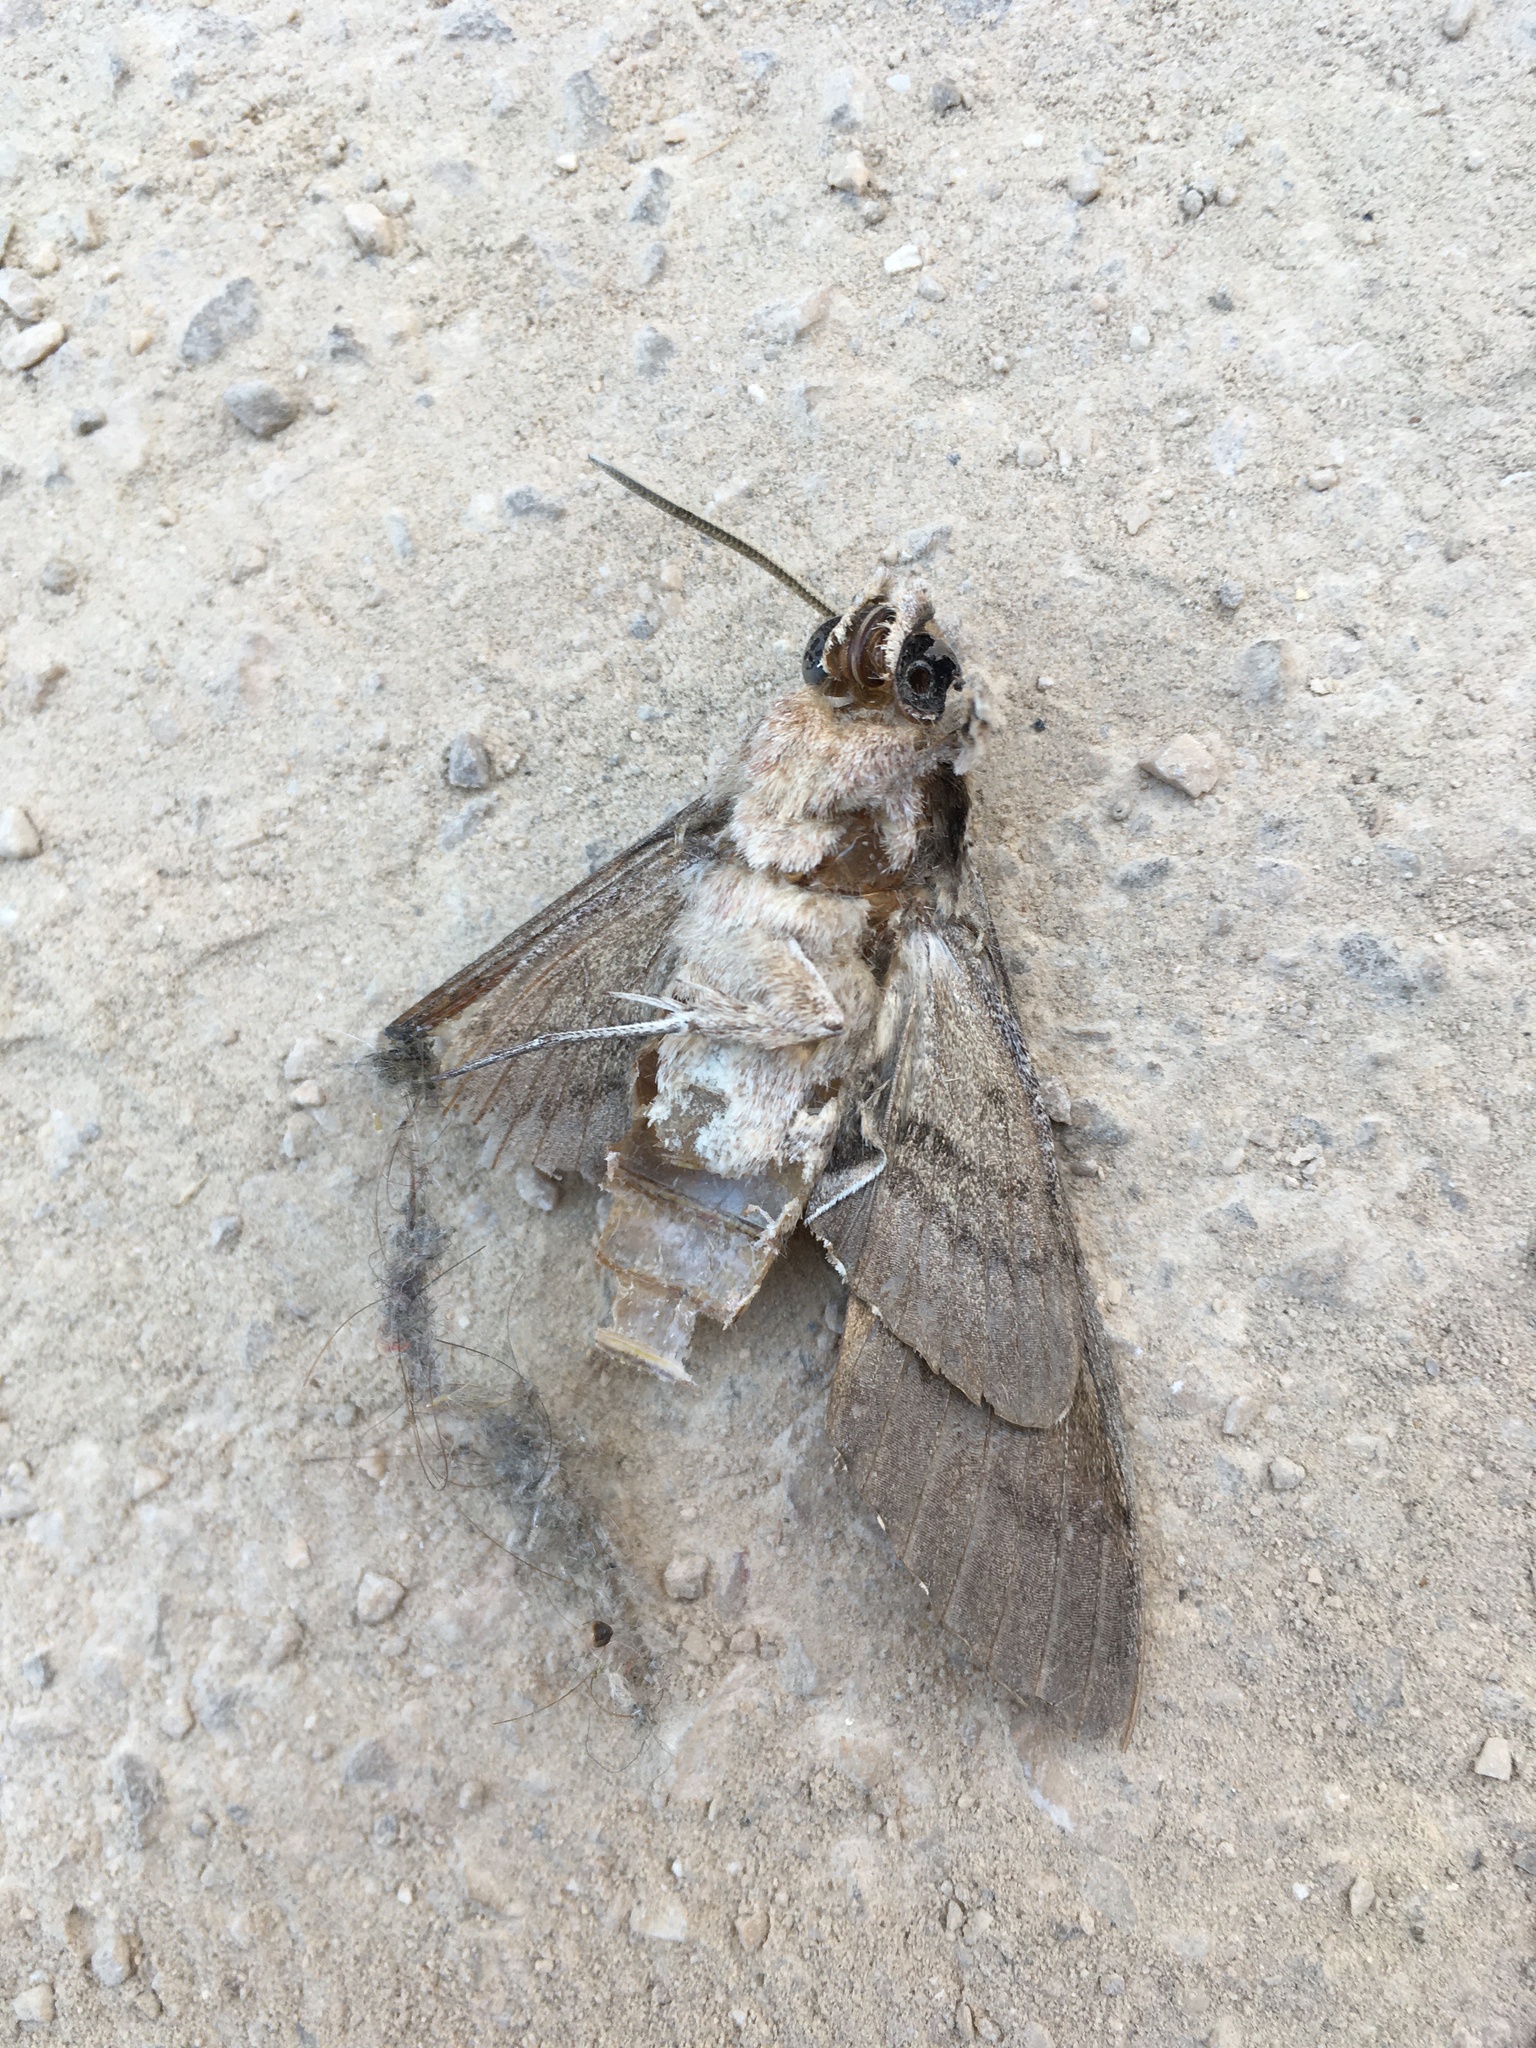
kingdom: Animalia
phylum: Arthropoda
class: Insecta
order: Lepidoptera
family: Sphingidae
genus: Agrius
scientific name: Agrius convolvuli
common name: Convolvulus hawkmoth
